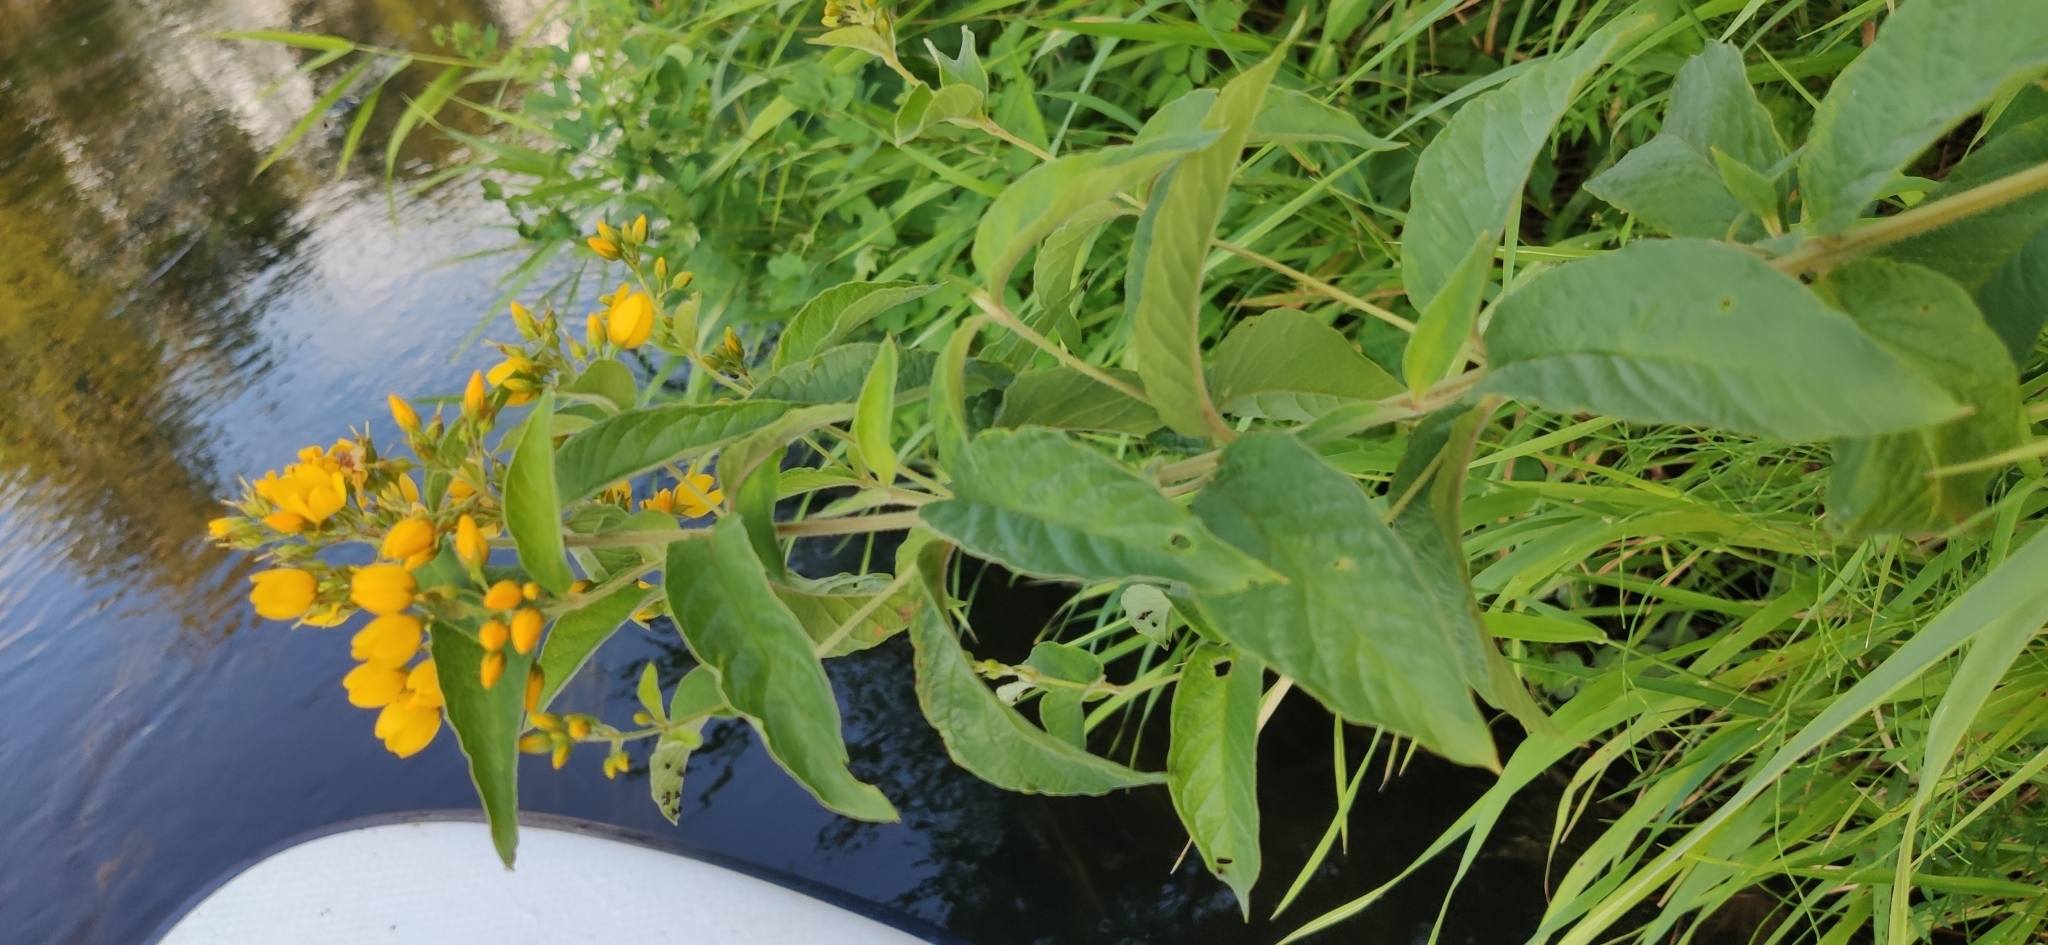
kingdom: Plantae
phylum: Tracheophyta
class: Magnoliopsida
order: Ericales
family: Primulaceae
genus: Lysimachia
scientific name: Lysimachia vulgaris
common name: Yellow loosestrife
